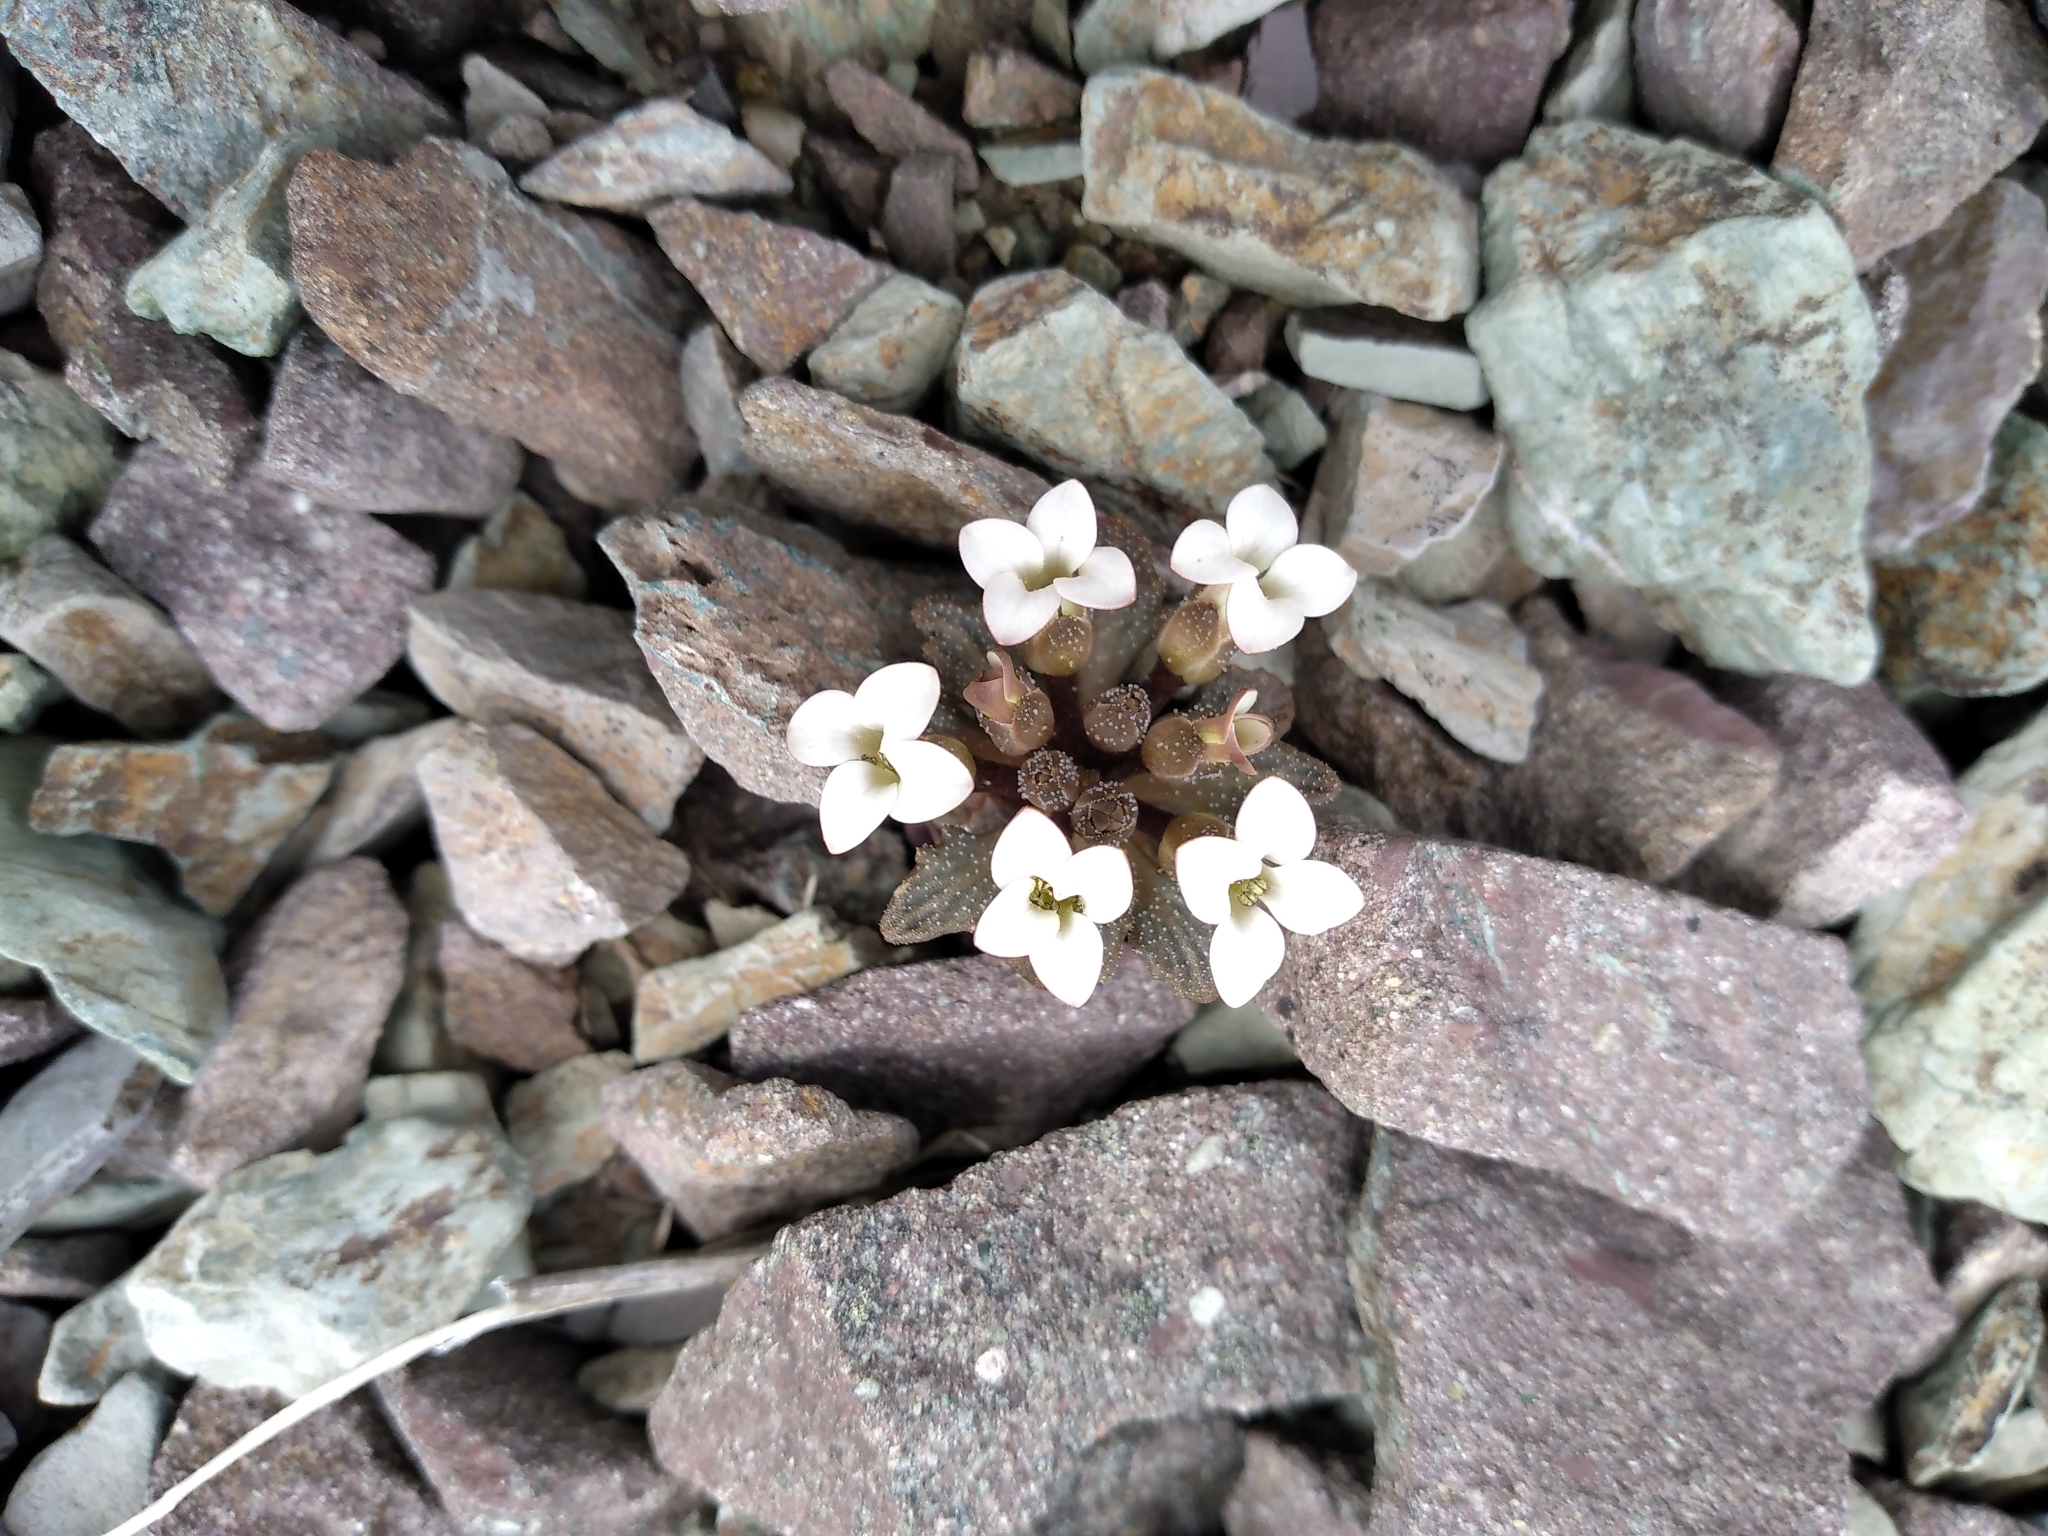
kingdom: Plantae
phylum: Tracheophyta
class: Magnoliopsida
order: Brassicales
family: Brassicaceae
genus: Notothlaspi
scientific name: Notothlaspi australe
